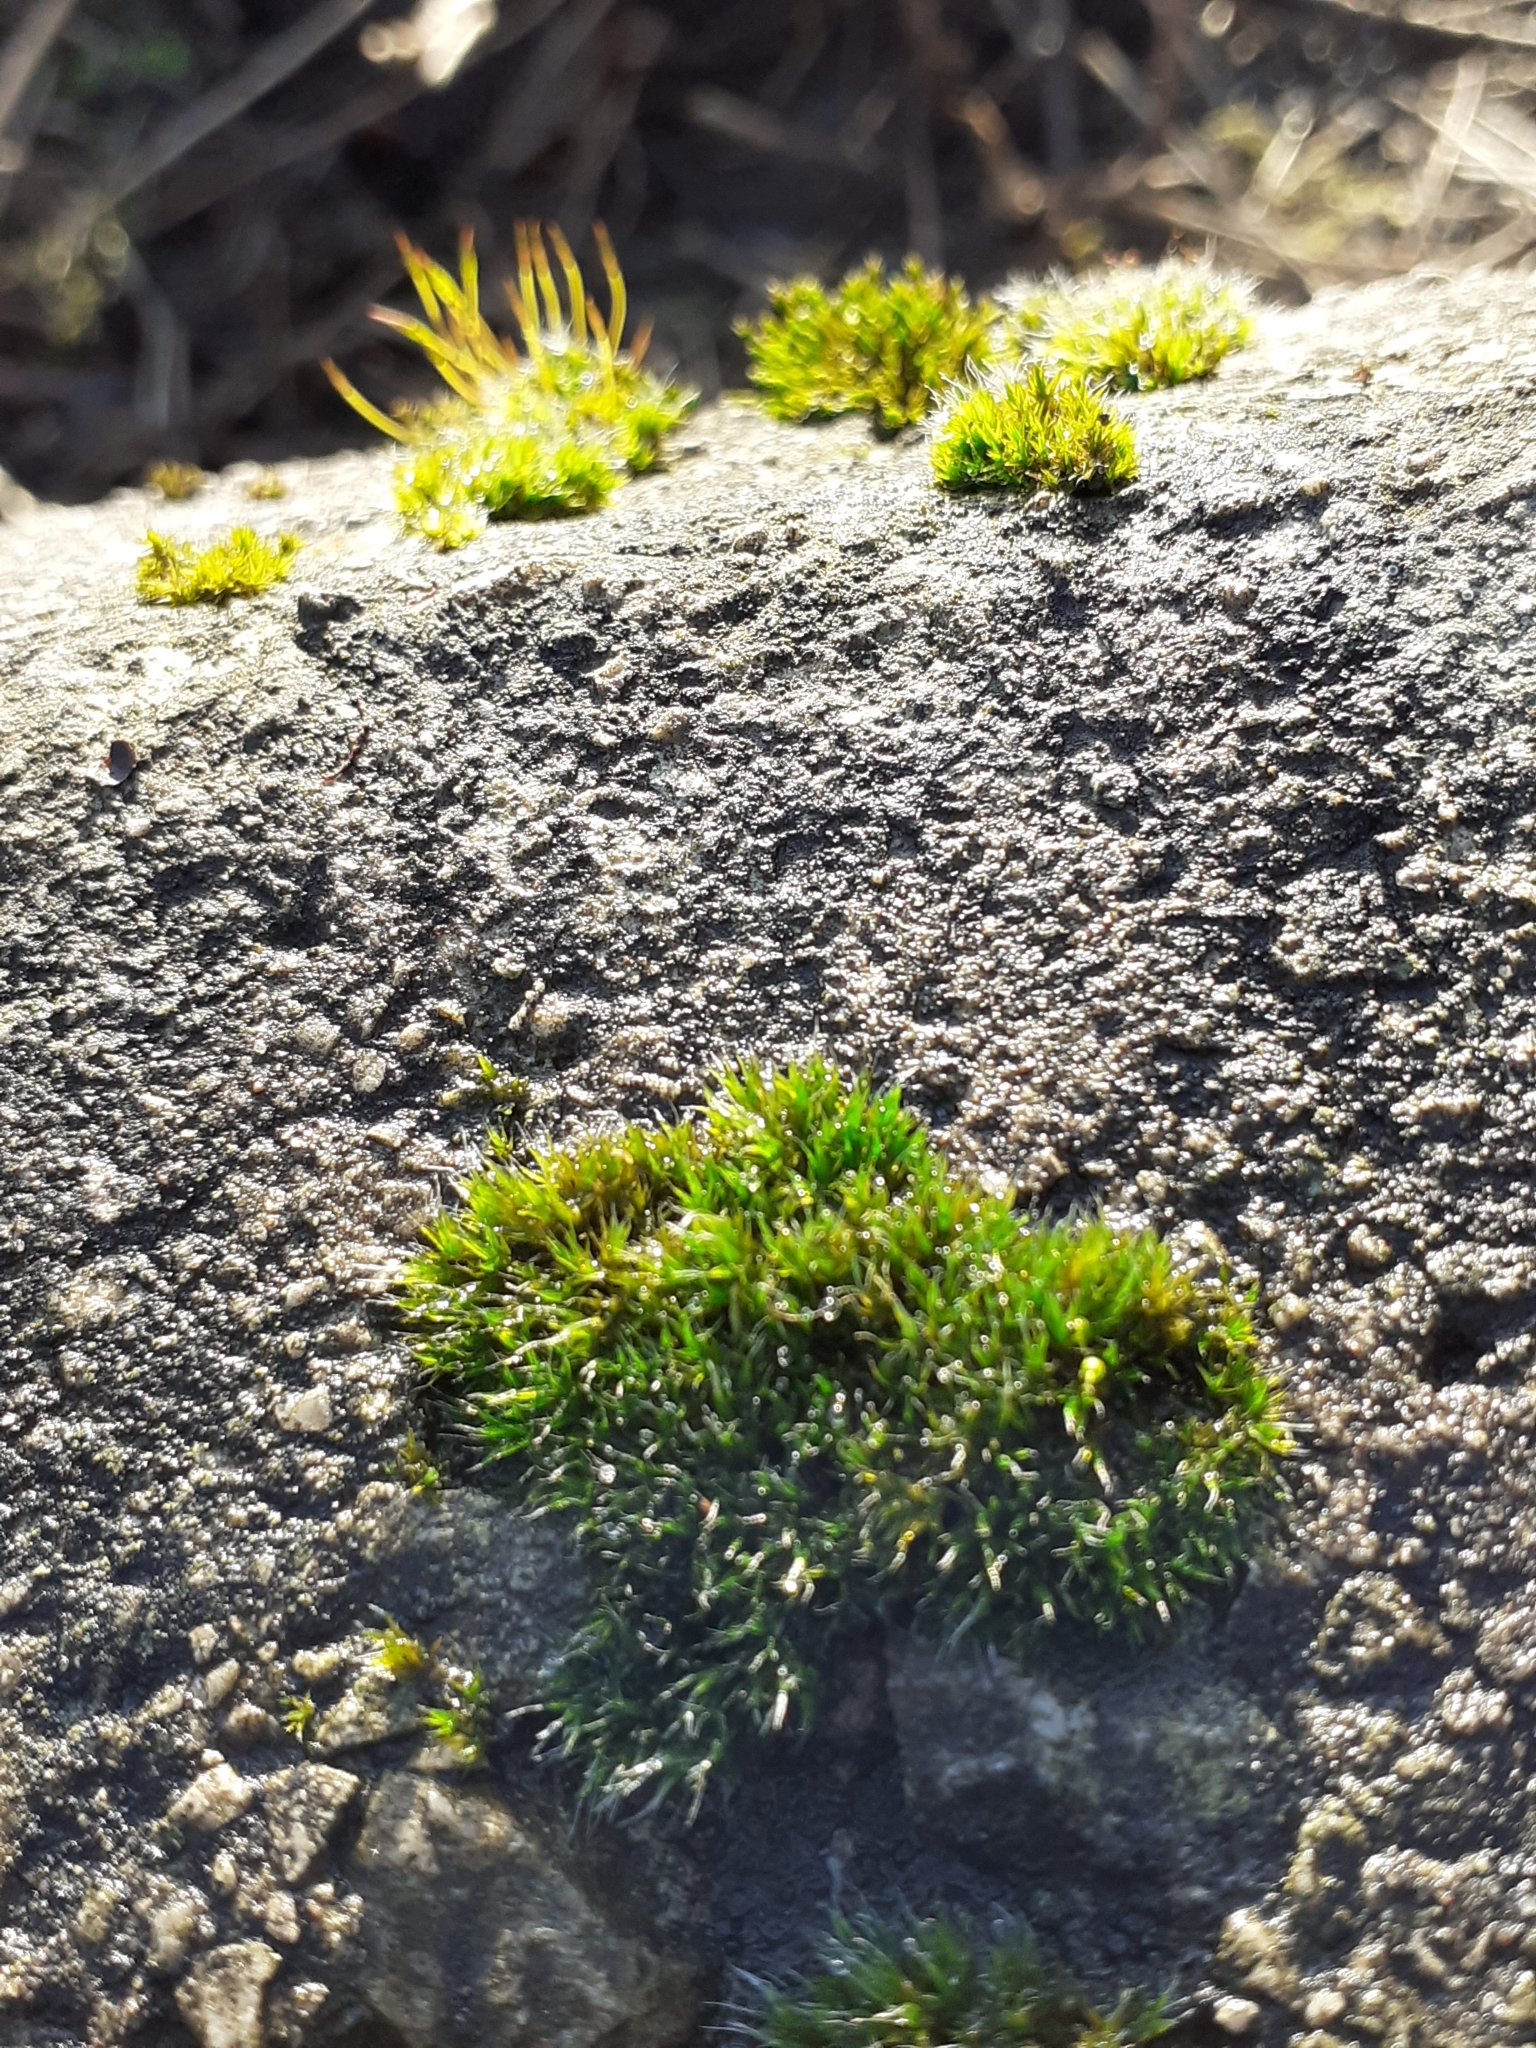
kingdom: Plantae
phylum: Bryophyta
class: Bryopsida
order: Grimmiales
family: Grimmiaceae
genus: Grimmia
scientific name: Grimmia pulvinata
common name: Grey-cushioned grimmia
